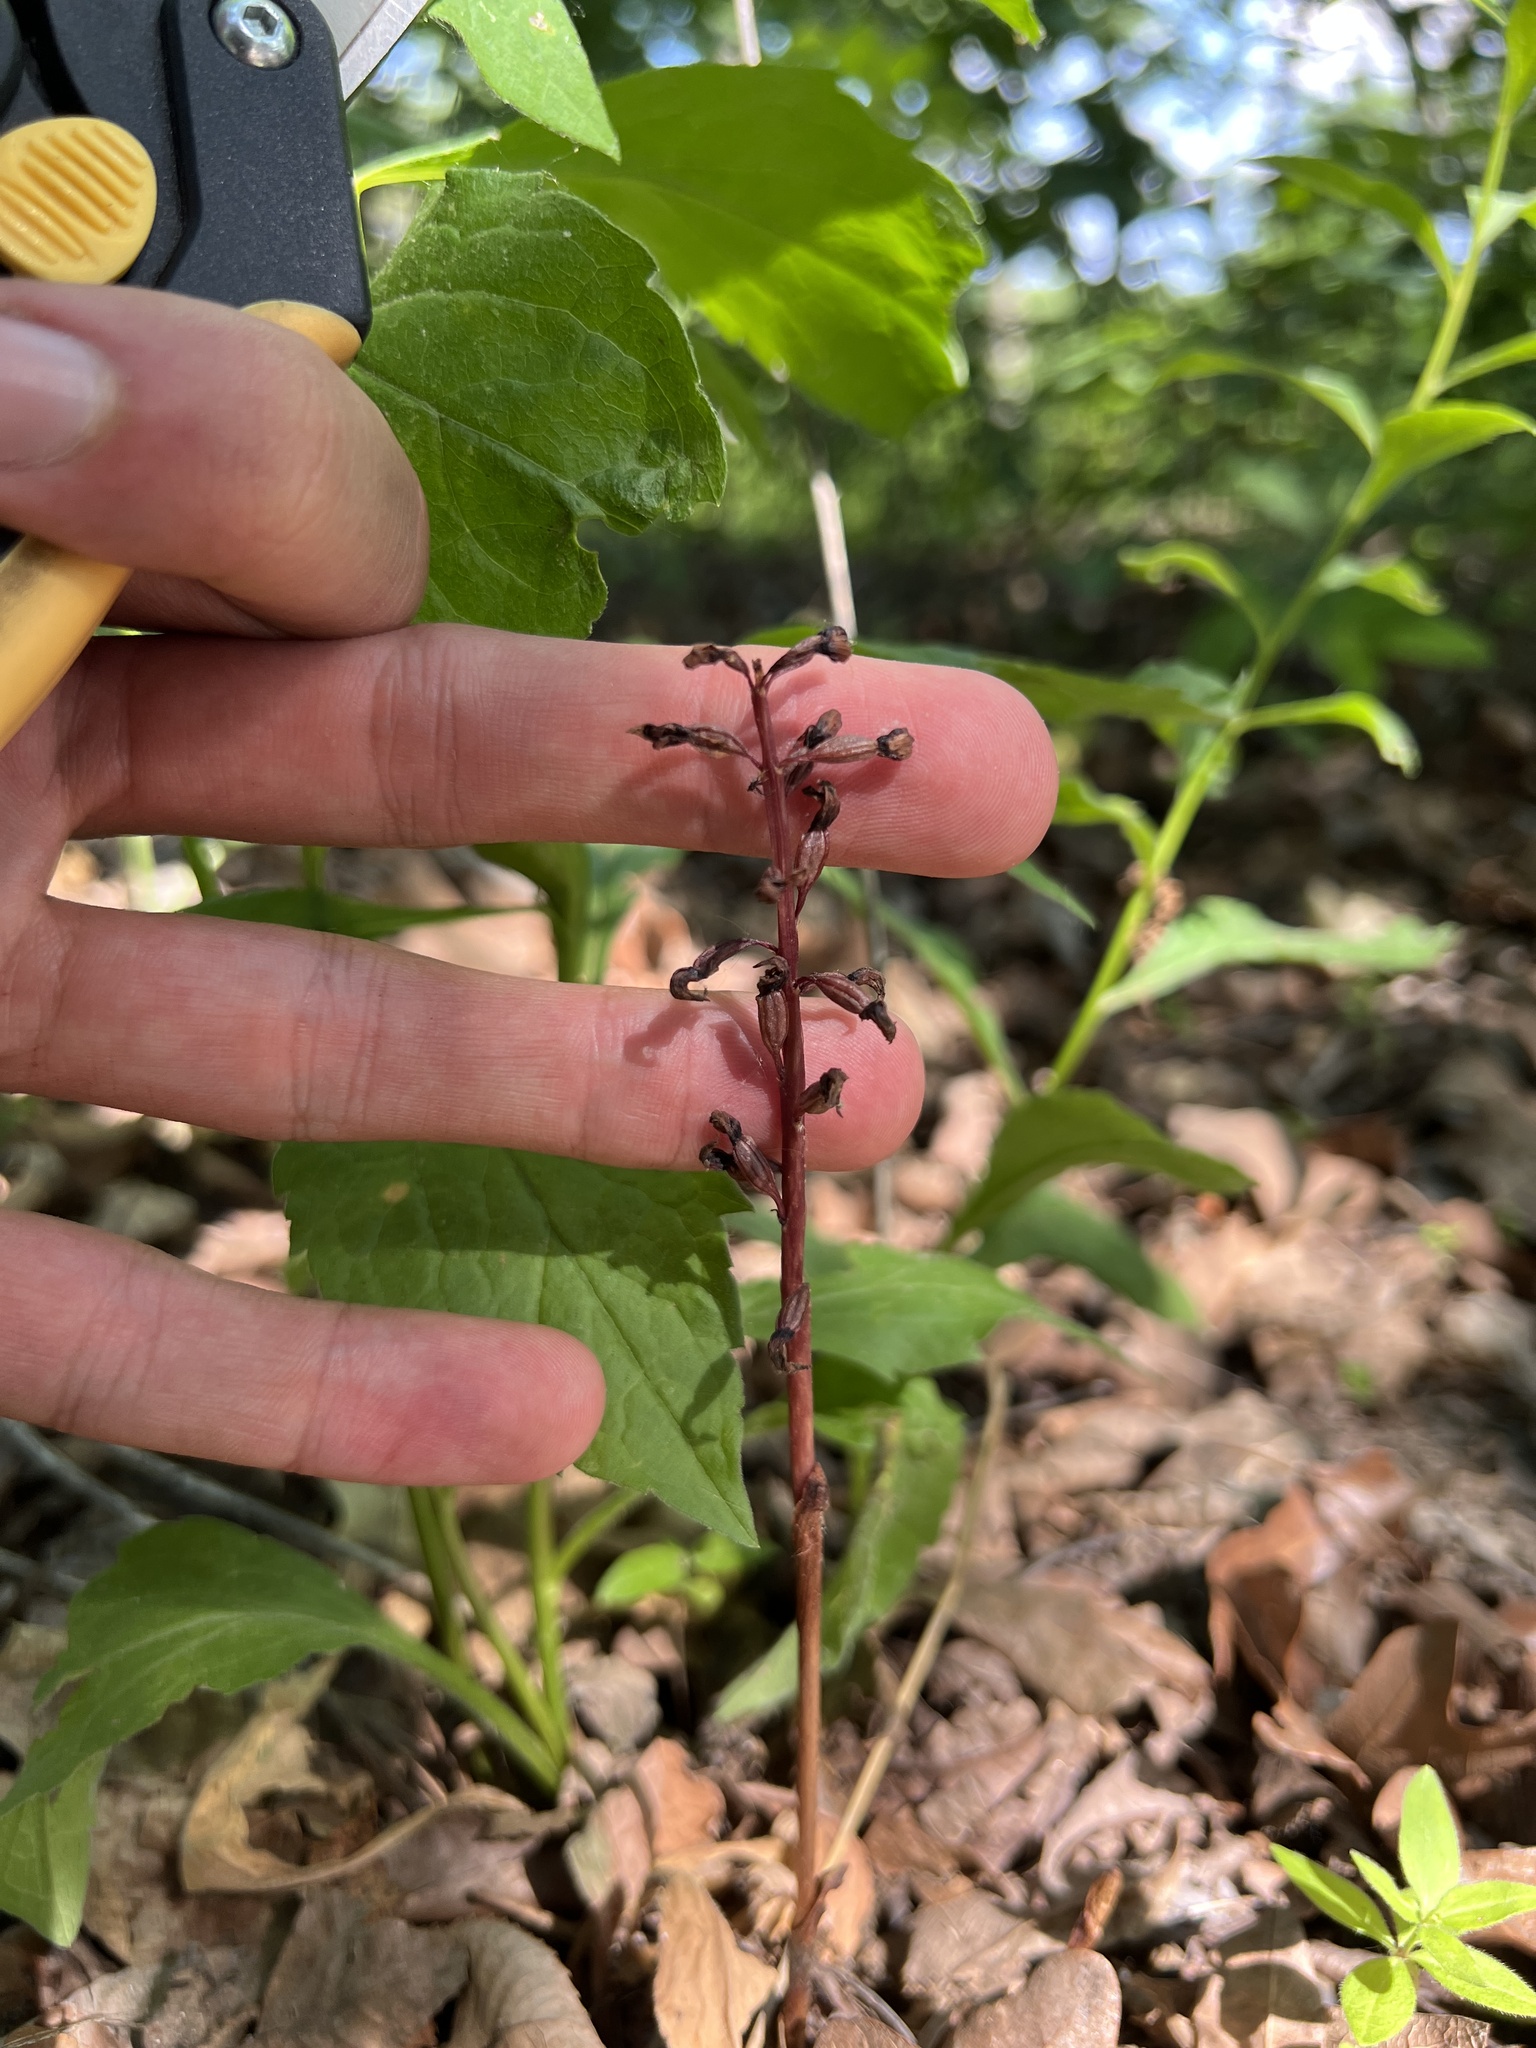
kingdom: Plantae
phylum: Tracheophyta
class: Liliopsida
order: Asparagales
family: Orchidaceae
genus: Corallorhiza
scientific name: Corallorhiza wisteriana
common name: Spring coralroot
